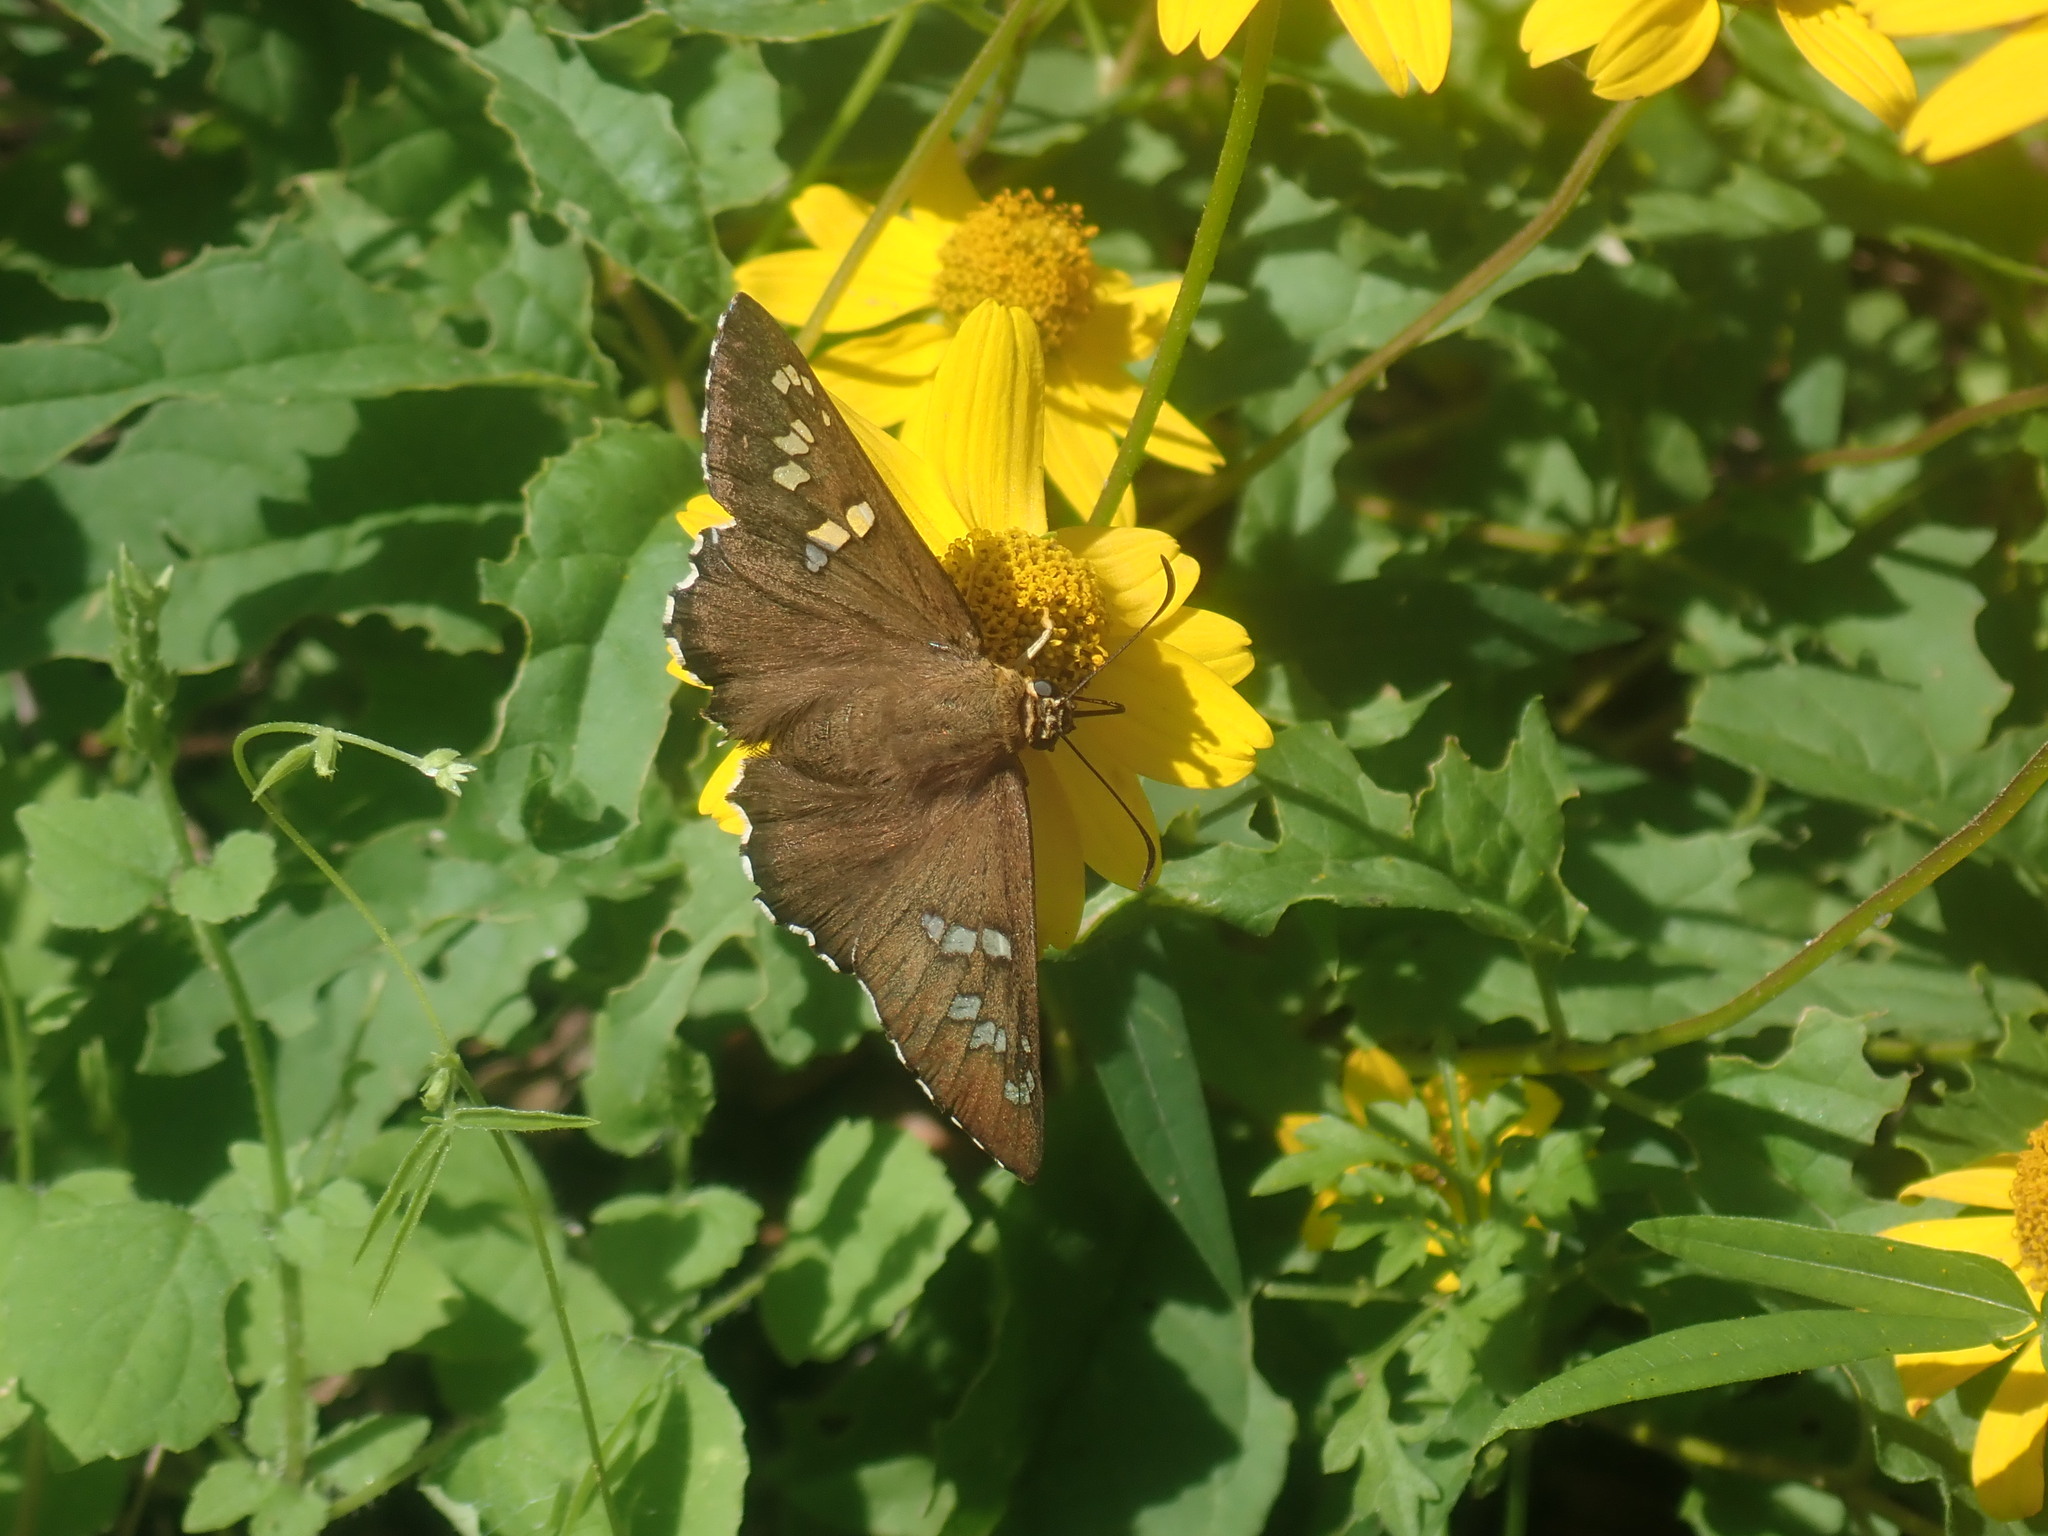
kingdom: Animalia
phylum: Arthropoda
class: Insecta
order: Lepidoptera
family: Hesperiidae
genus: Pyrrhopyge
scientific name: Pyrrhopyge araxes
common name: Dull firetip
